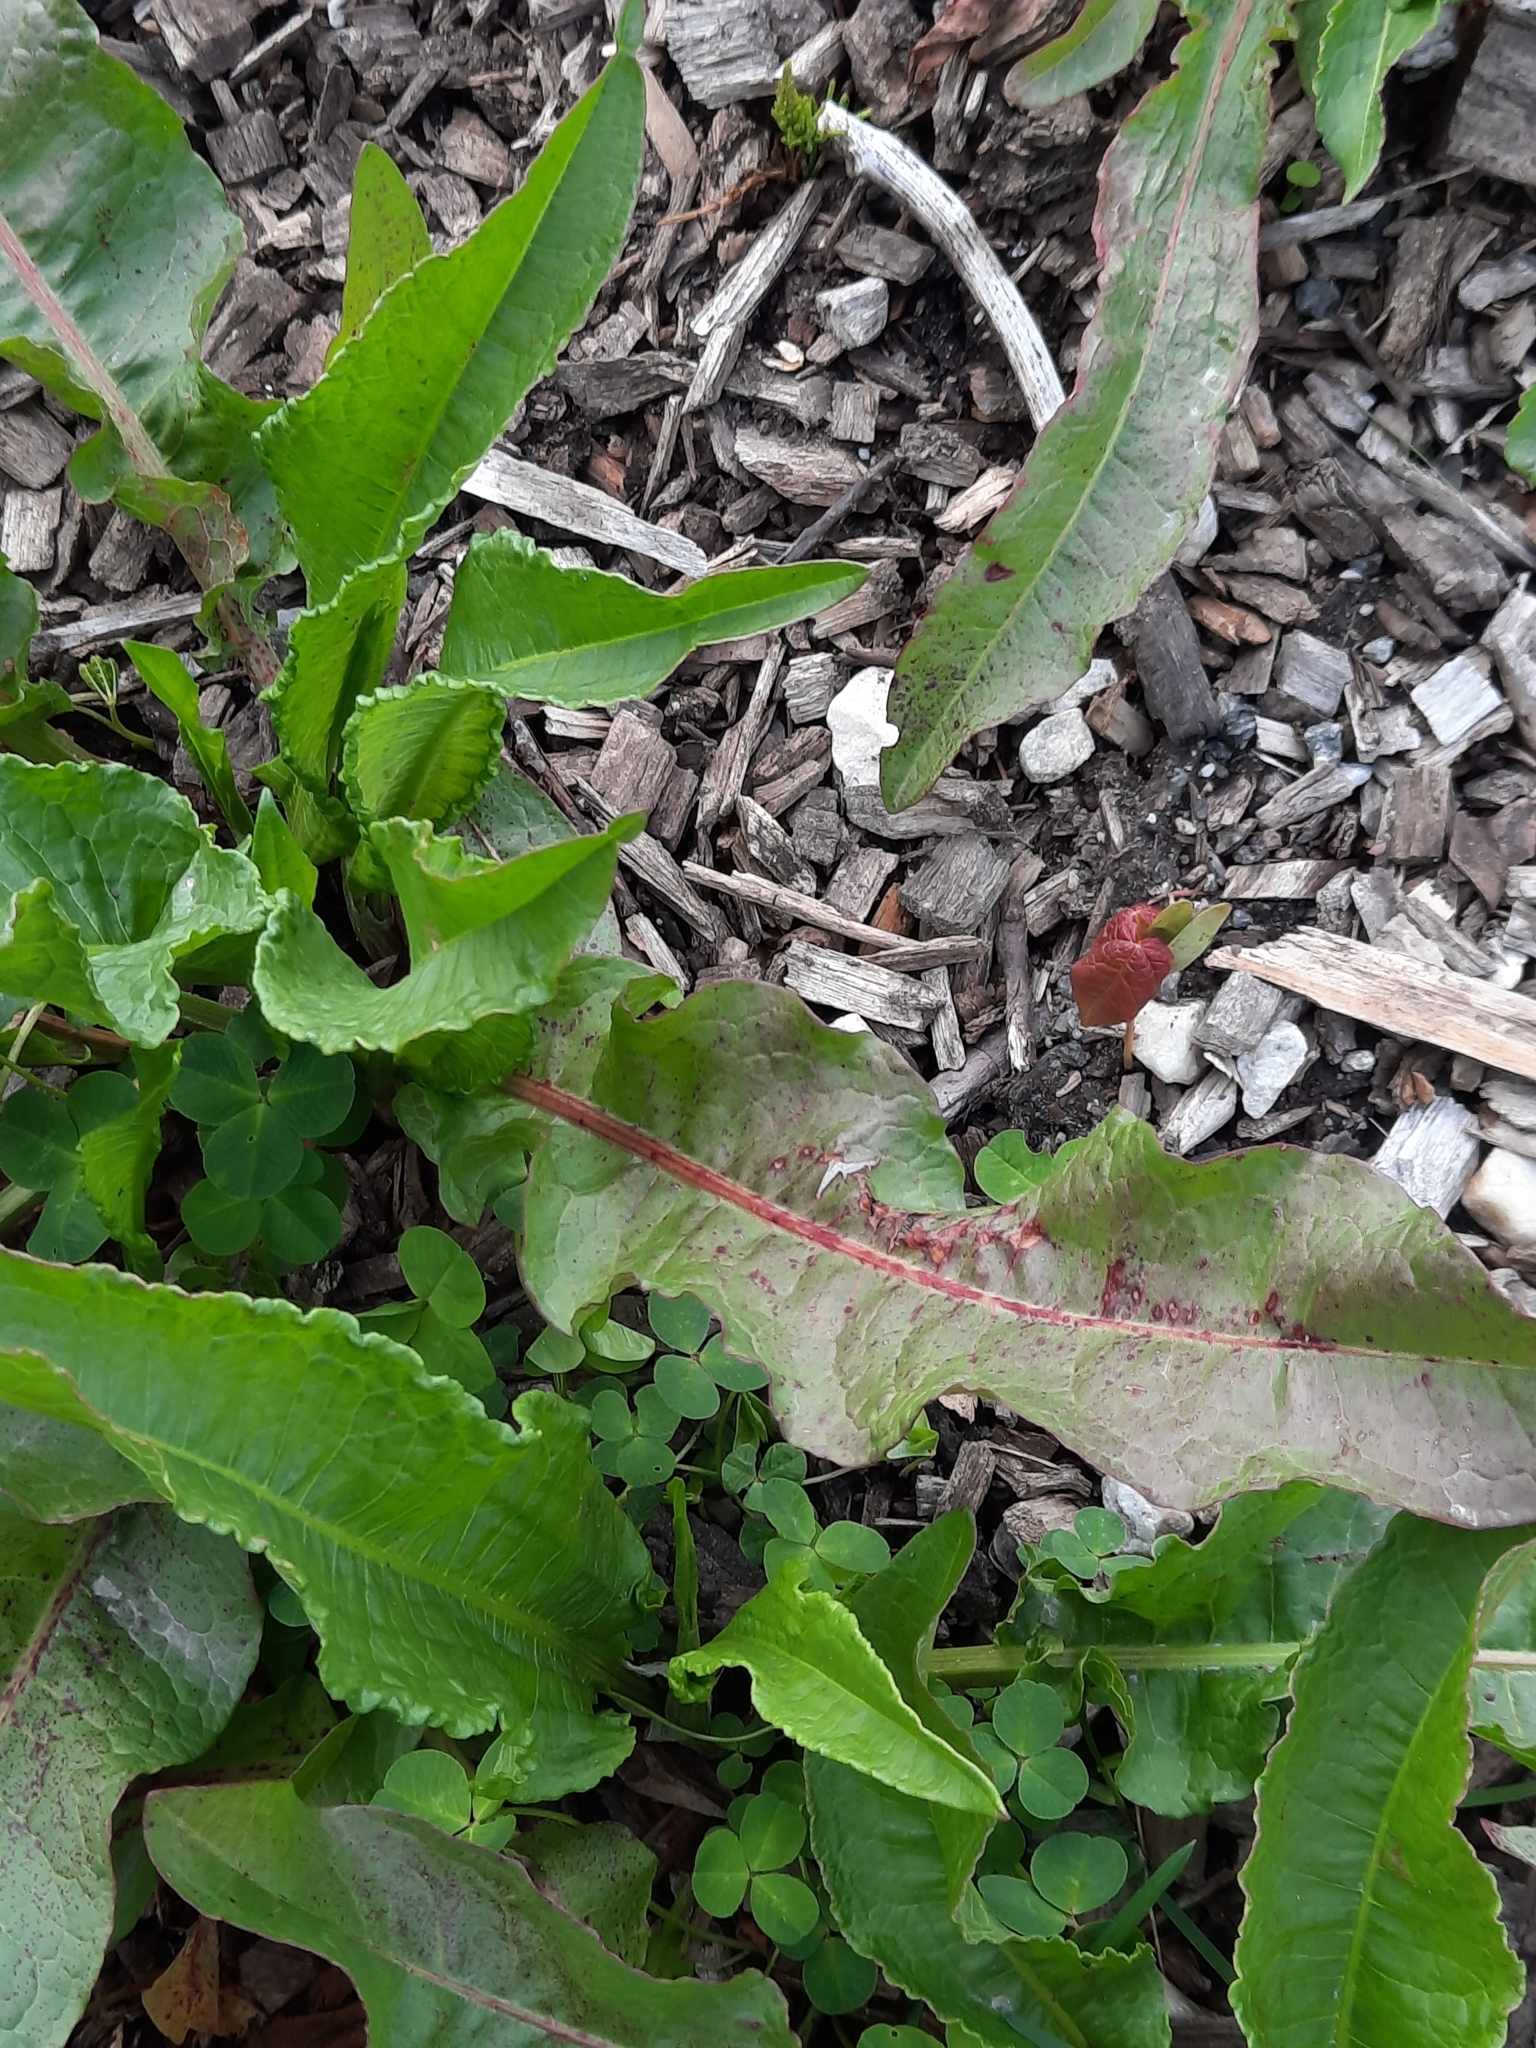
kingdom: Plantae
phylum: Tracheophyta
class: Magnoliopsida
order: Caryophyllales
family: Polygonaceae
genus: Rumex
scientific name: Rumex crispus
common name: Curled dock
